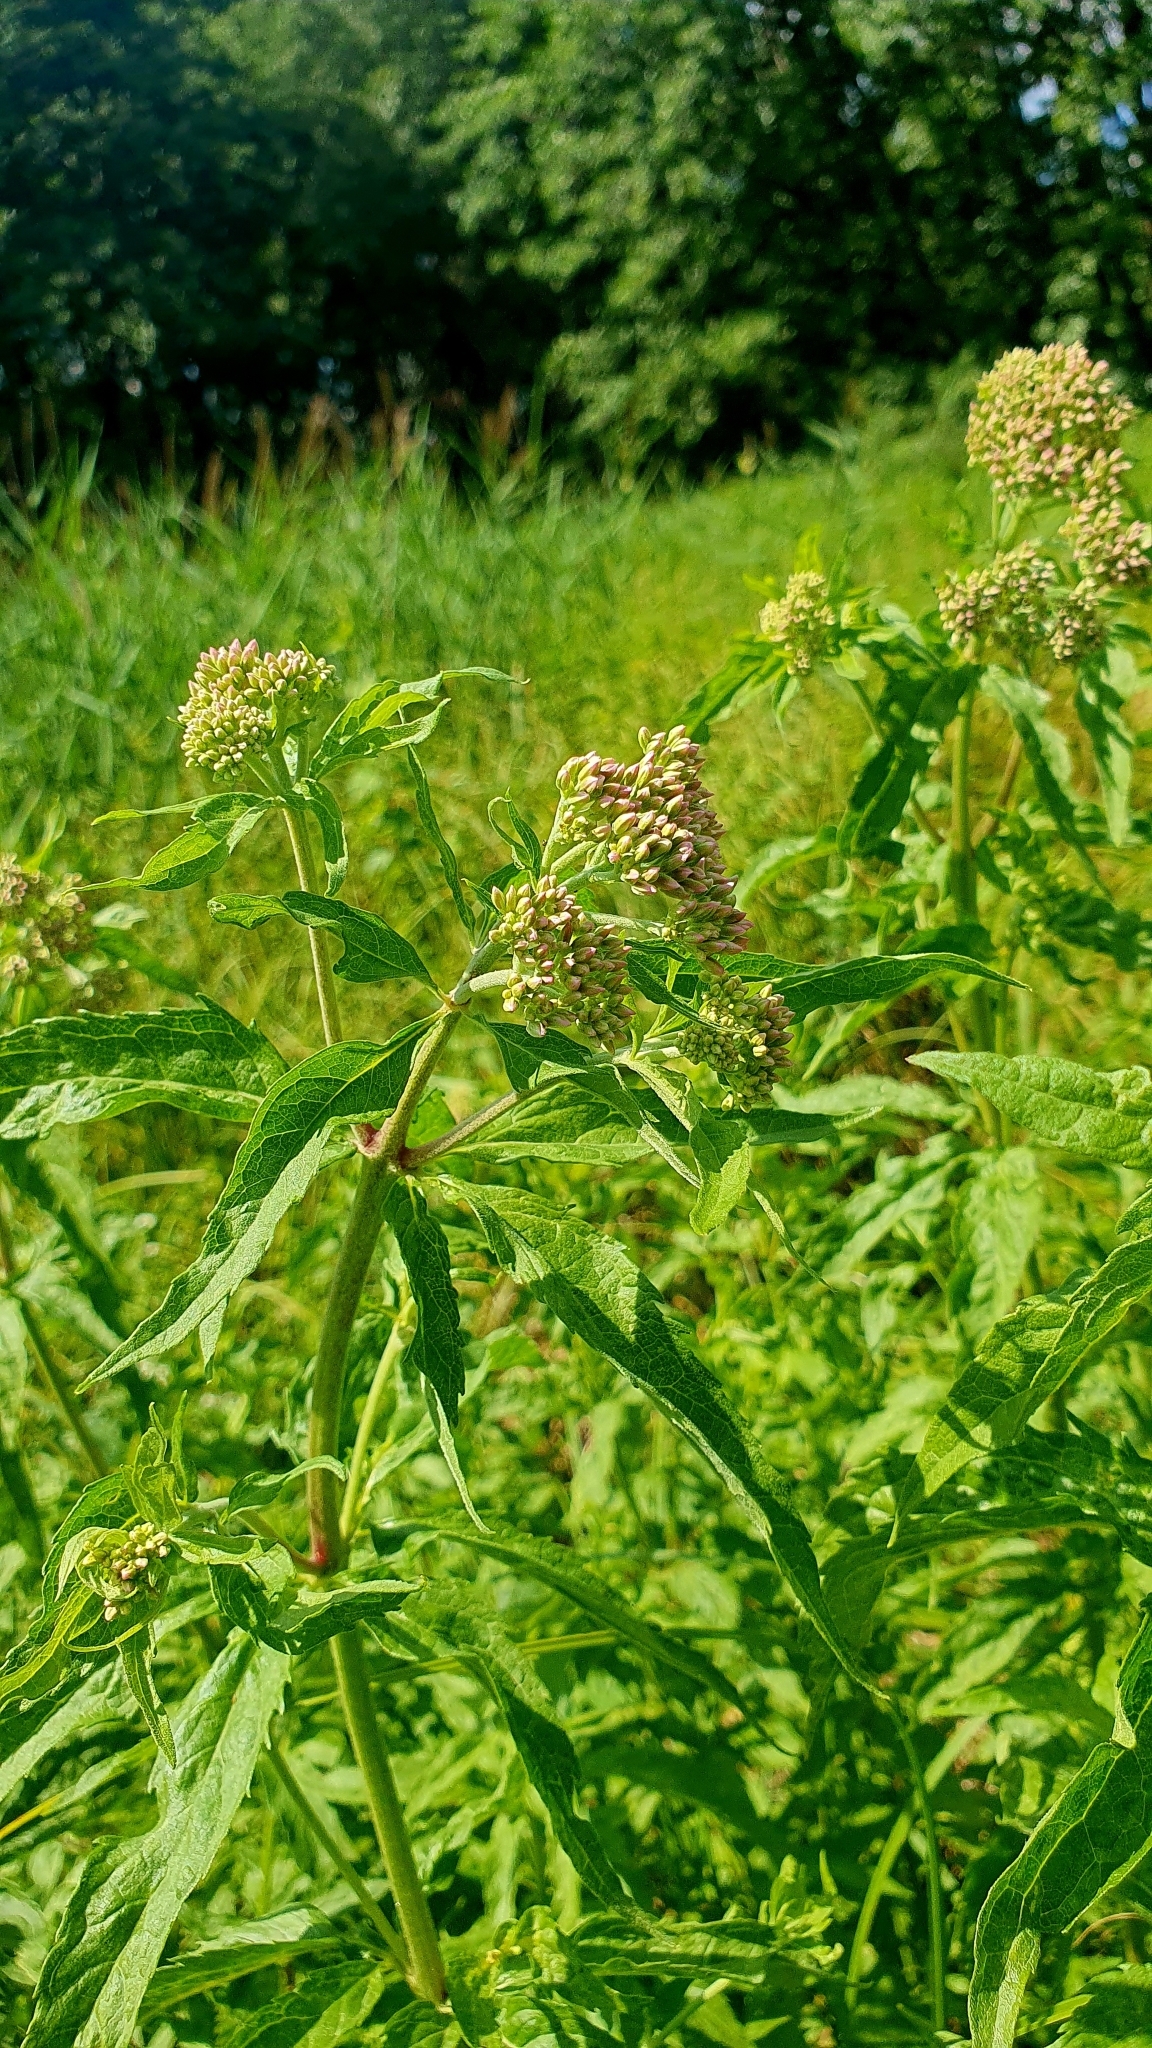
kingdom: Plantae
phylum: Tracheophyta
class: Magnoliopsida
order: Asterales
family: Asteraceae
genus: Eupatorium
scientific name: Eupatorium cannabinum
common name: Hemp-agrimony
